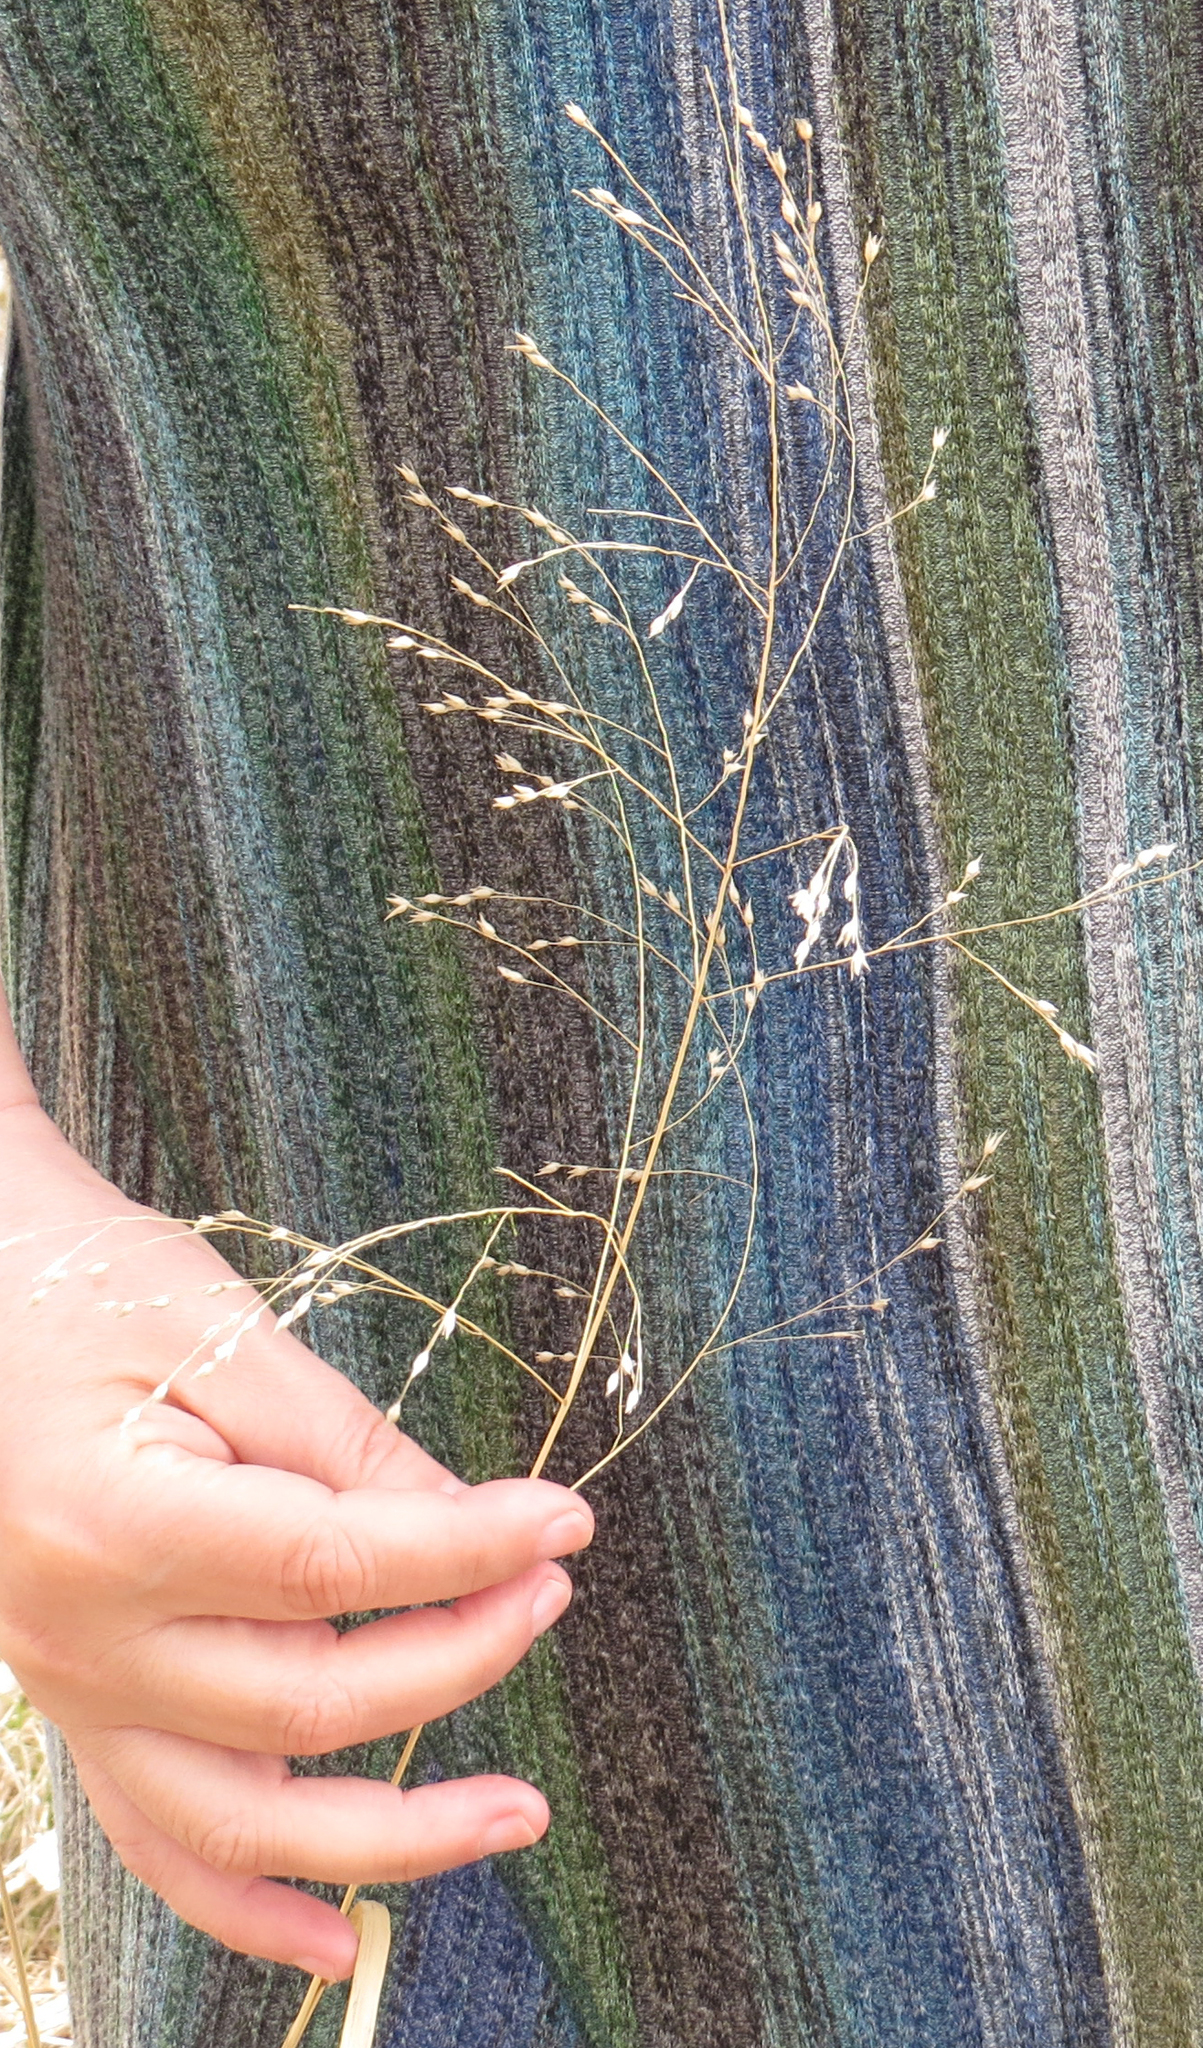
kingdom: Plantae
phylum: Tracheophyta
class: Liliopsida
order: Poales
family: Poaceae
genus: Panicum
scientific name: Panicum virgatum
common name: Switchgrass
